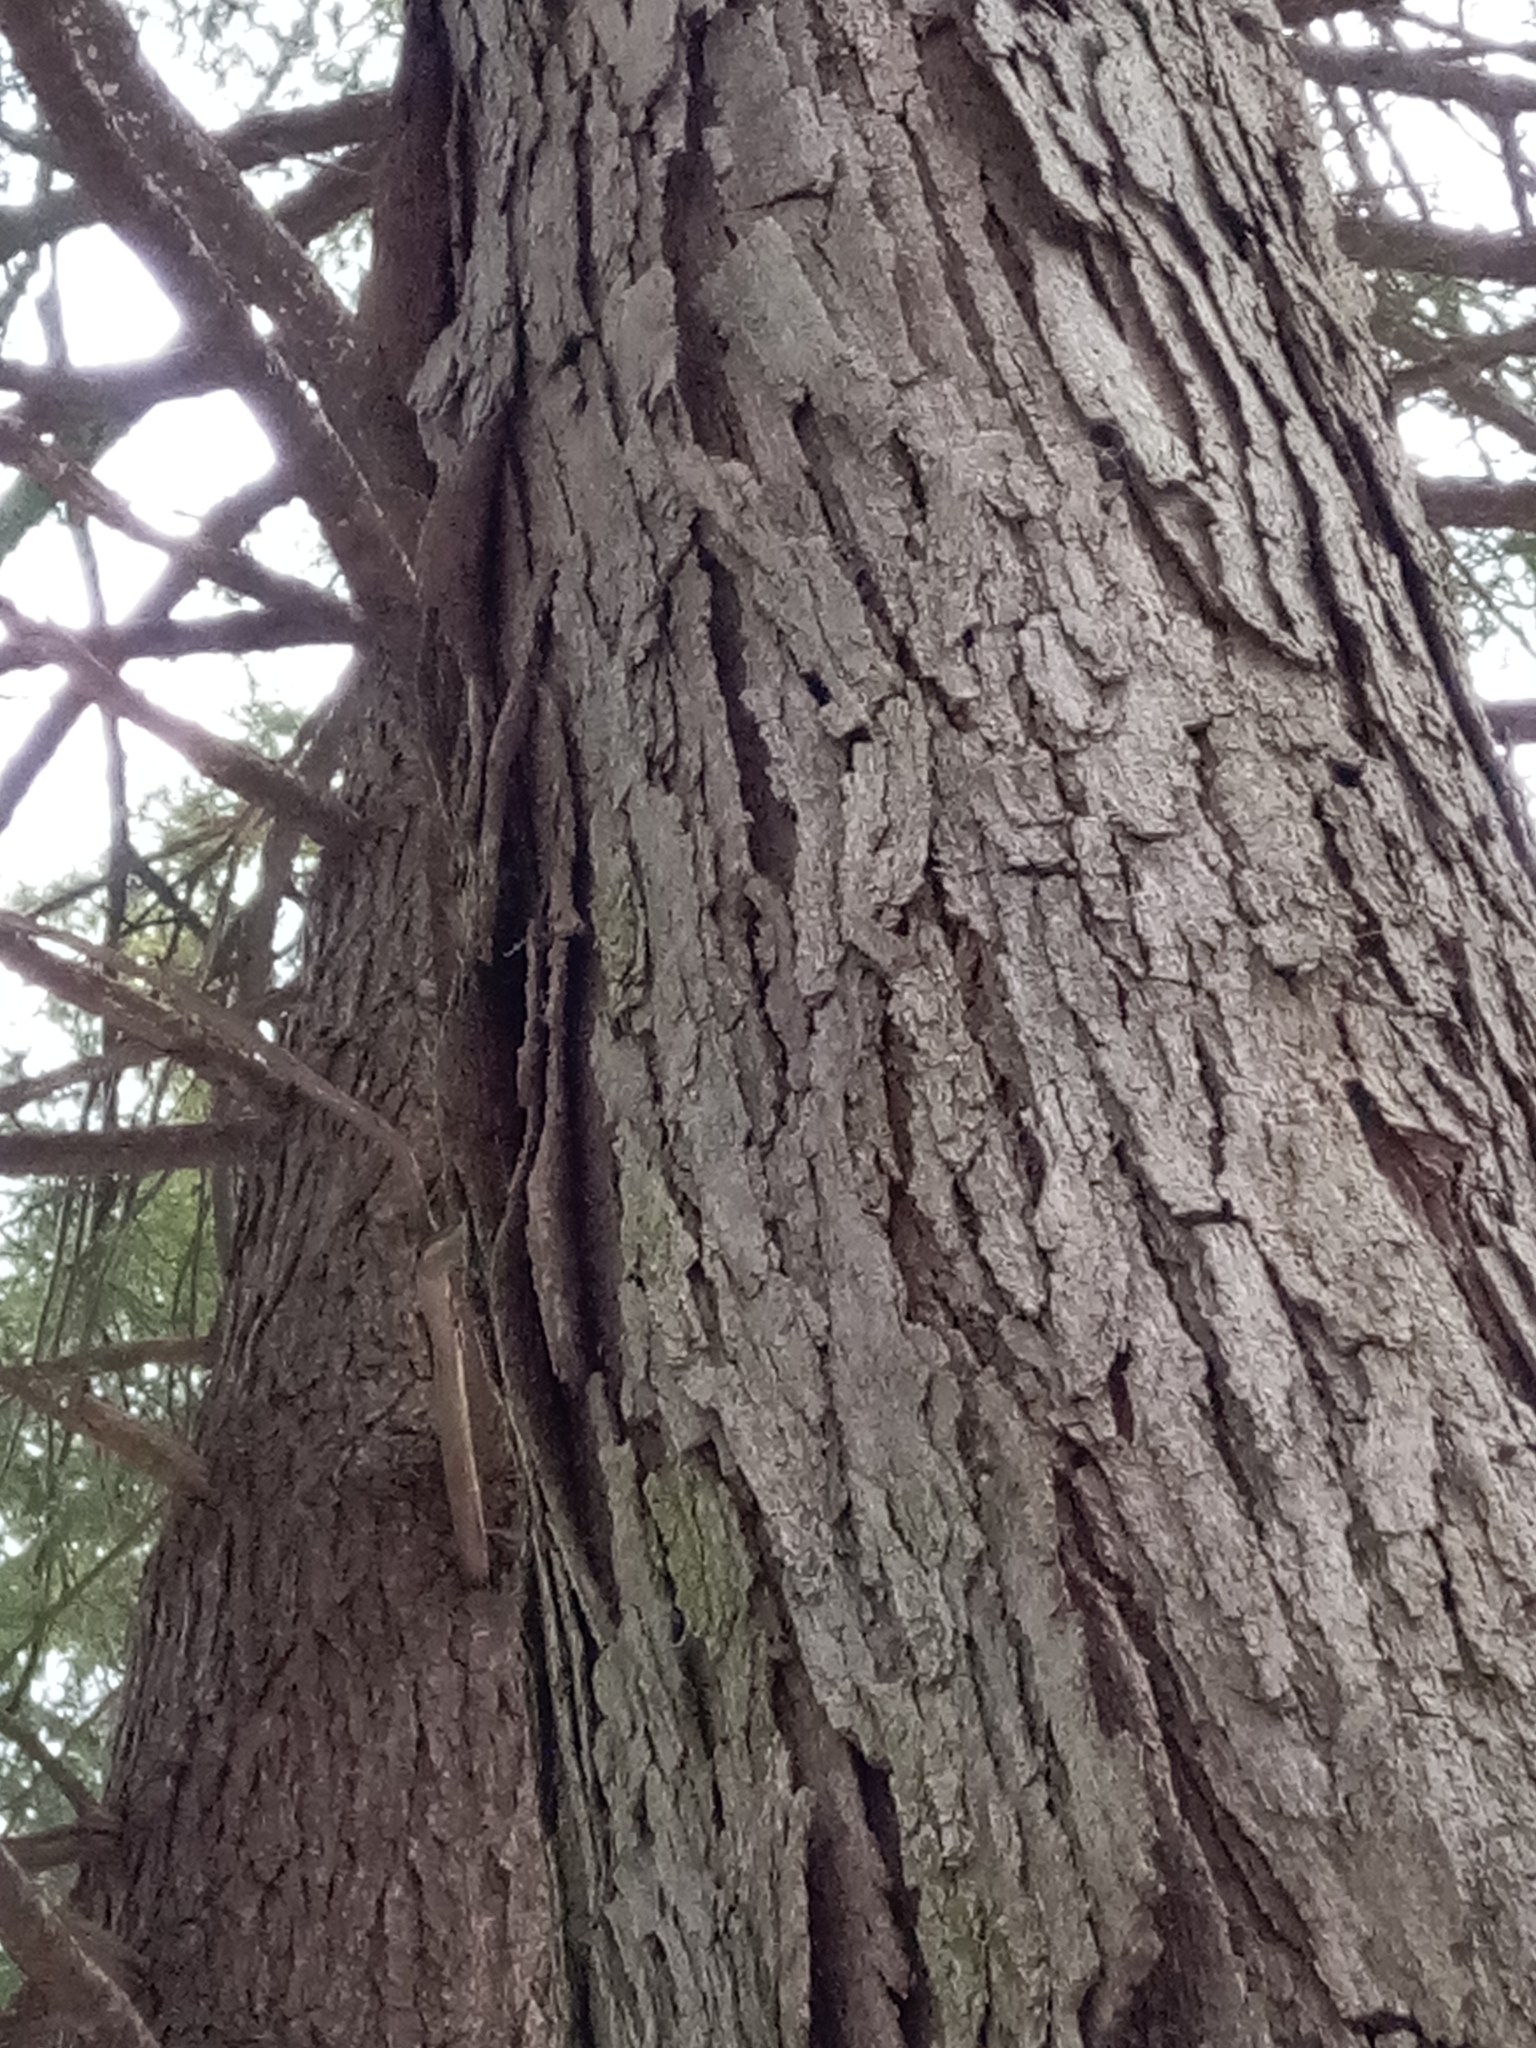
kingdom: Plantae
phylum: Tracheophyta
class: Magnoliopsida
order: Fagales
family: Fagaceae
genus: Quercus
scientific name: Quercus alba
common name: White oak
